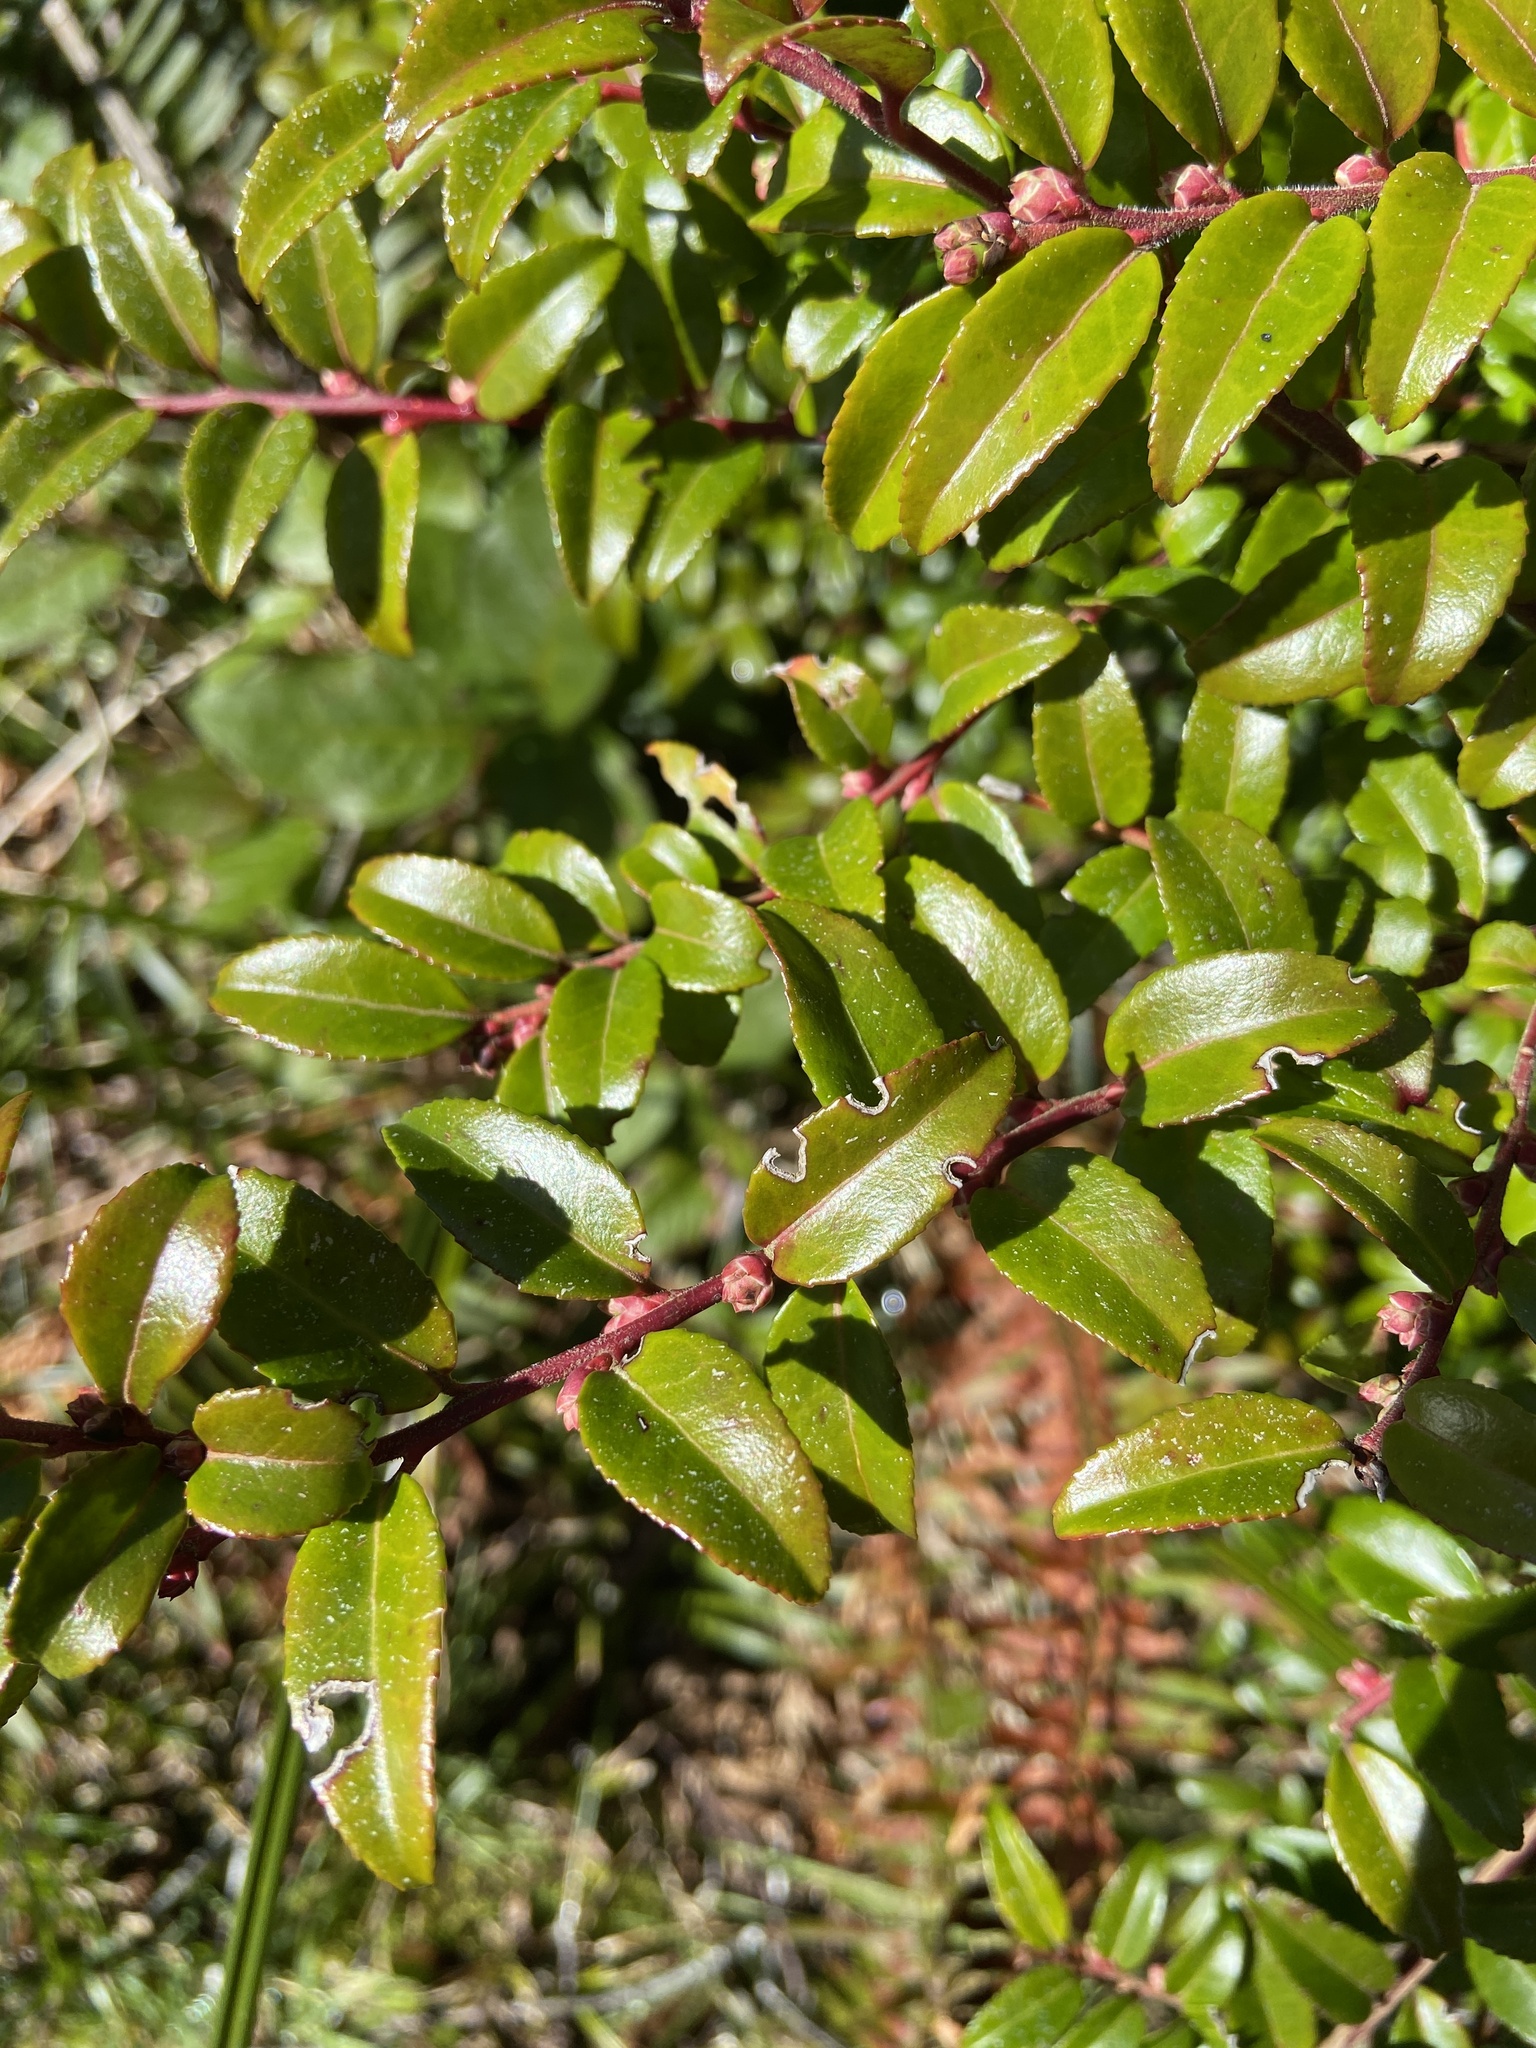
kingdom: Plantae
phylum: Tracheophyta
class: Magnoliopsida
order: Ericales
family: Ericaceae
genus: Vaccinium
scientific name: Vaccinium ovatum
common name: California-huckleberry
